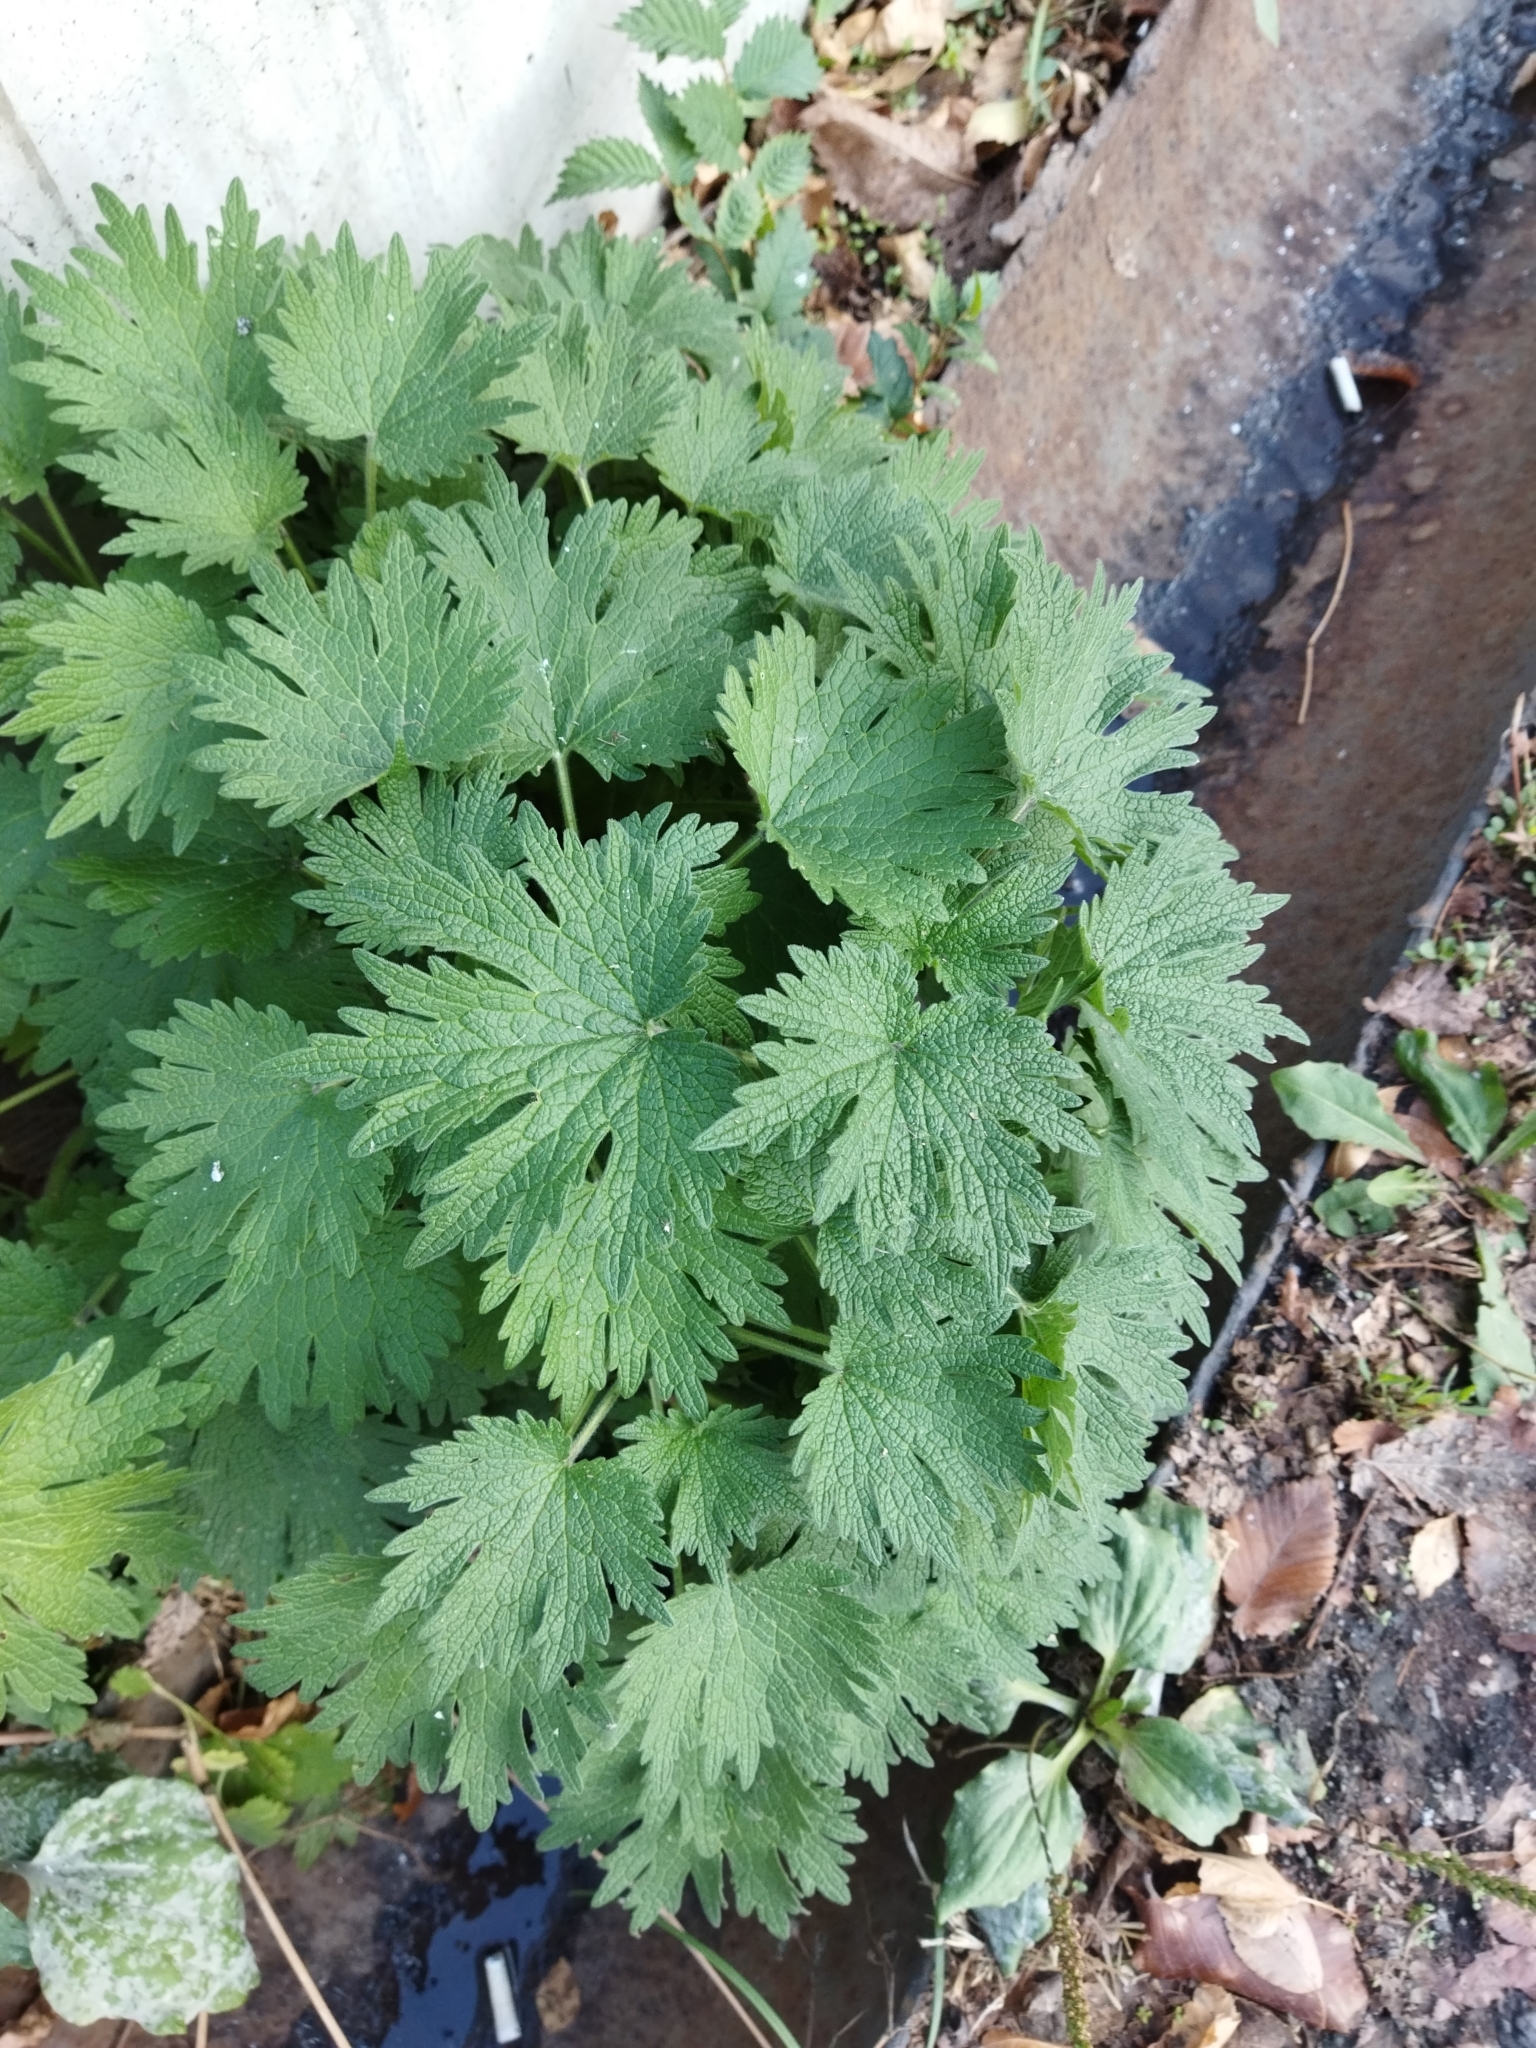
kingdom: Plantae
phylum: Tracheophyta
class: Magnoliopsida
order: Lamiales
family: Lamiaceae
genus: Leonurus
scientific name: Leonurus turkestanicus
